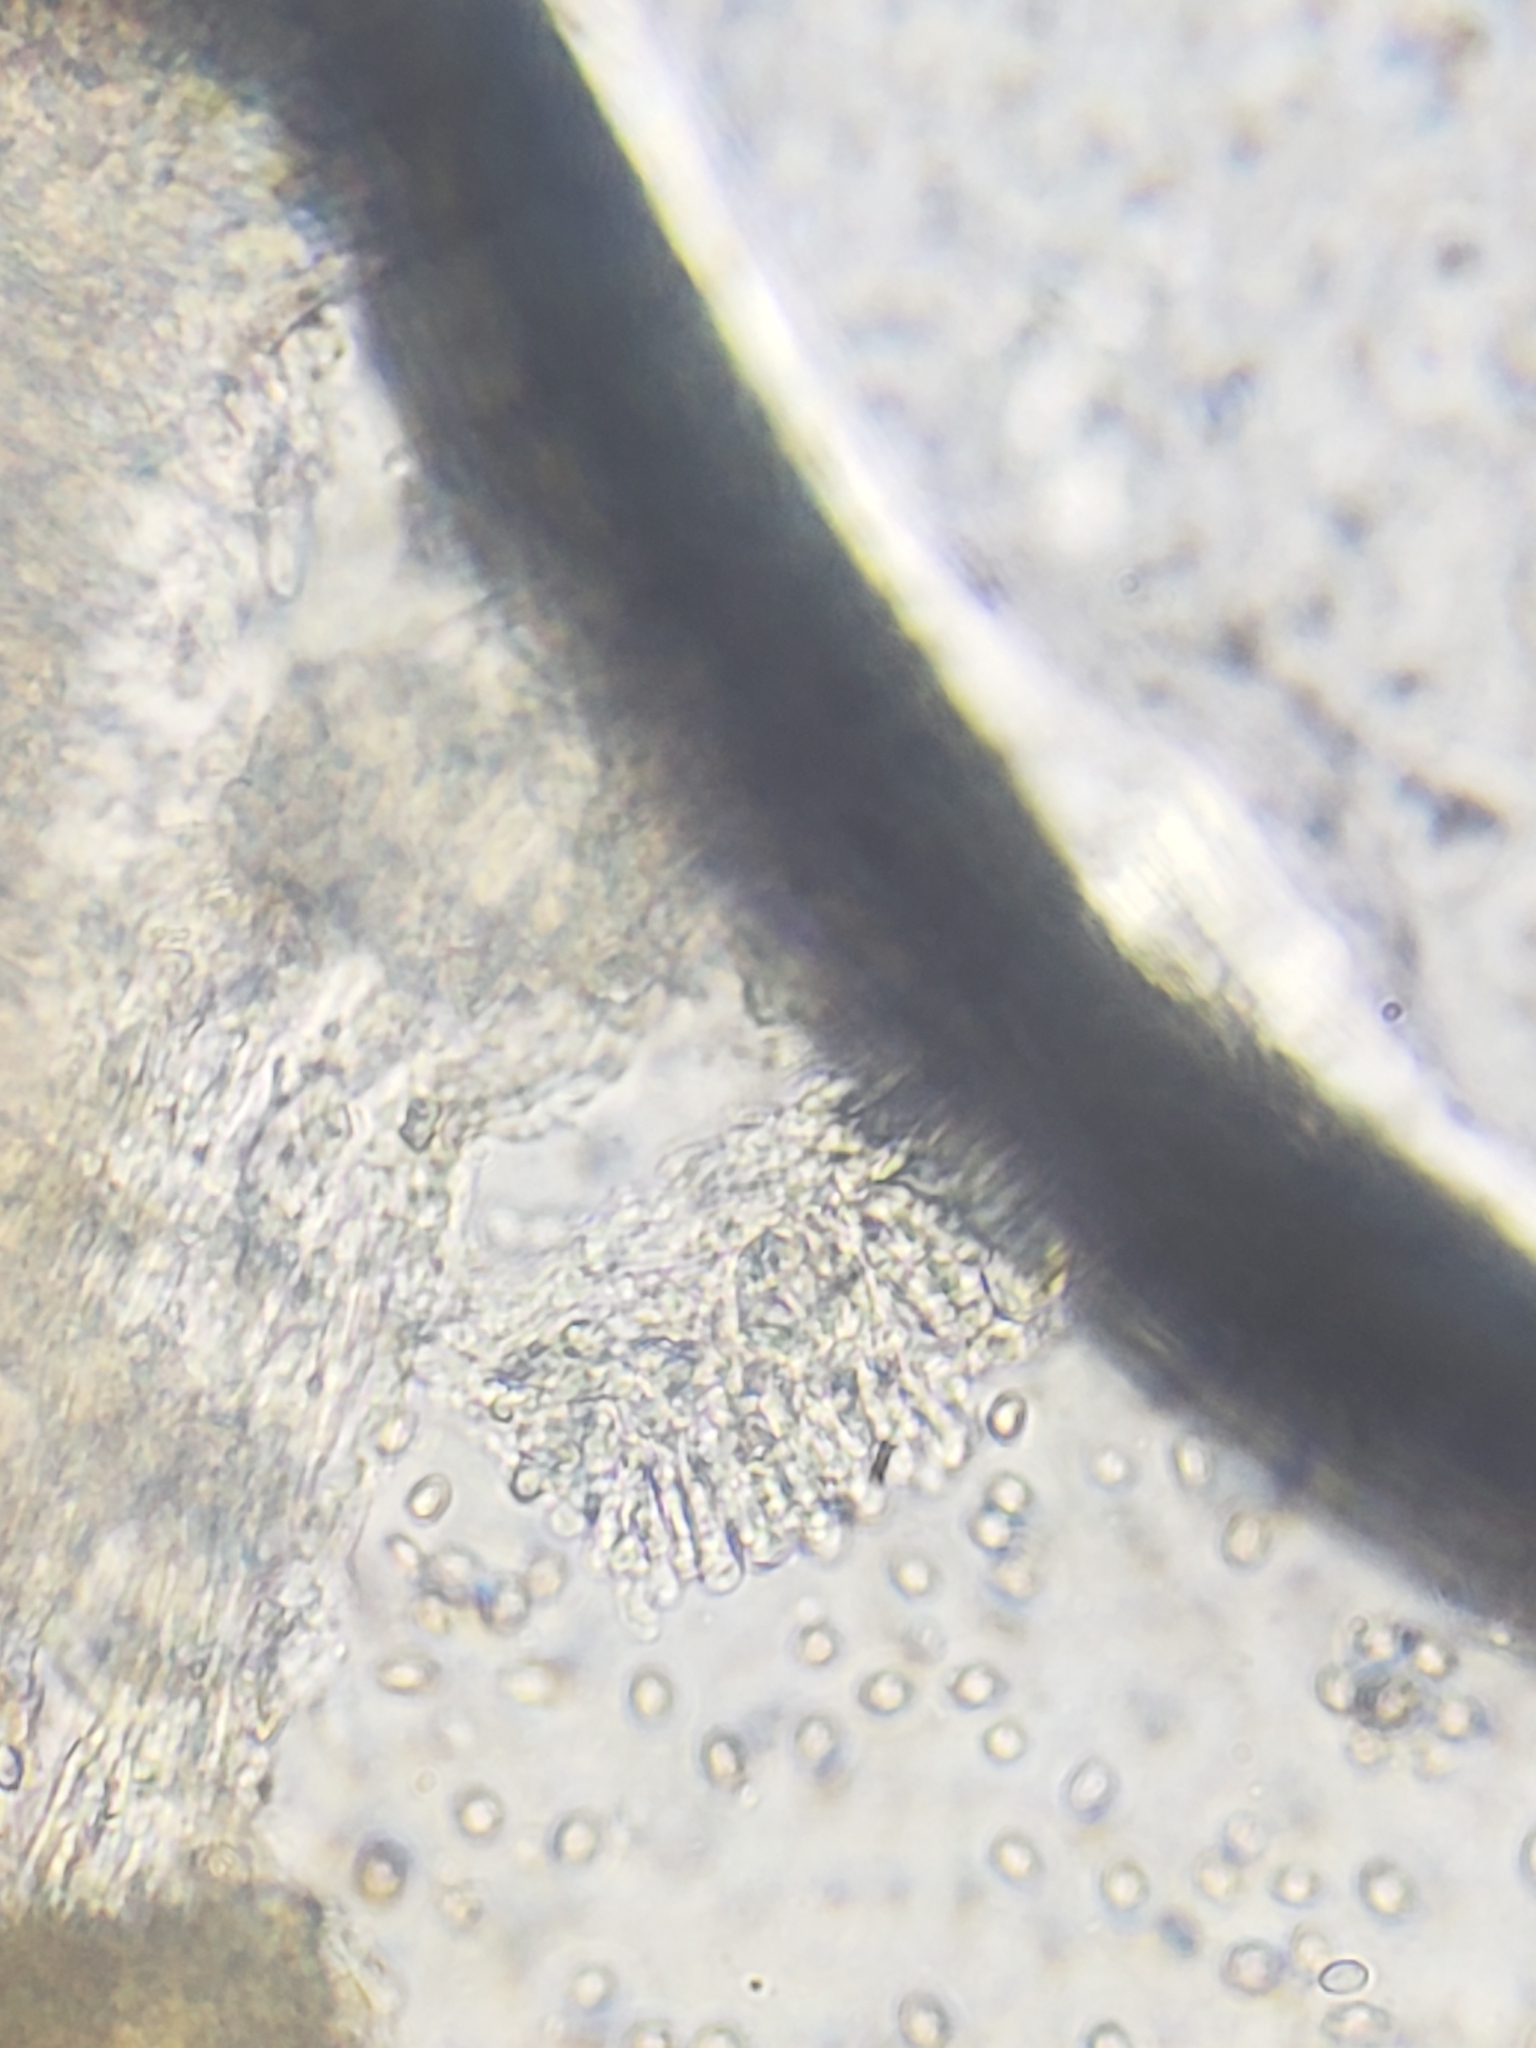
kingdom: Fungi
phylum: Basidiomycota
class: Agaricomycetes
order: Agaricales
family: Strophariaceae
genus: Hypholoma
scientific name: Hypholoma lateritium
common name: Brick caps
